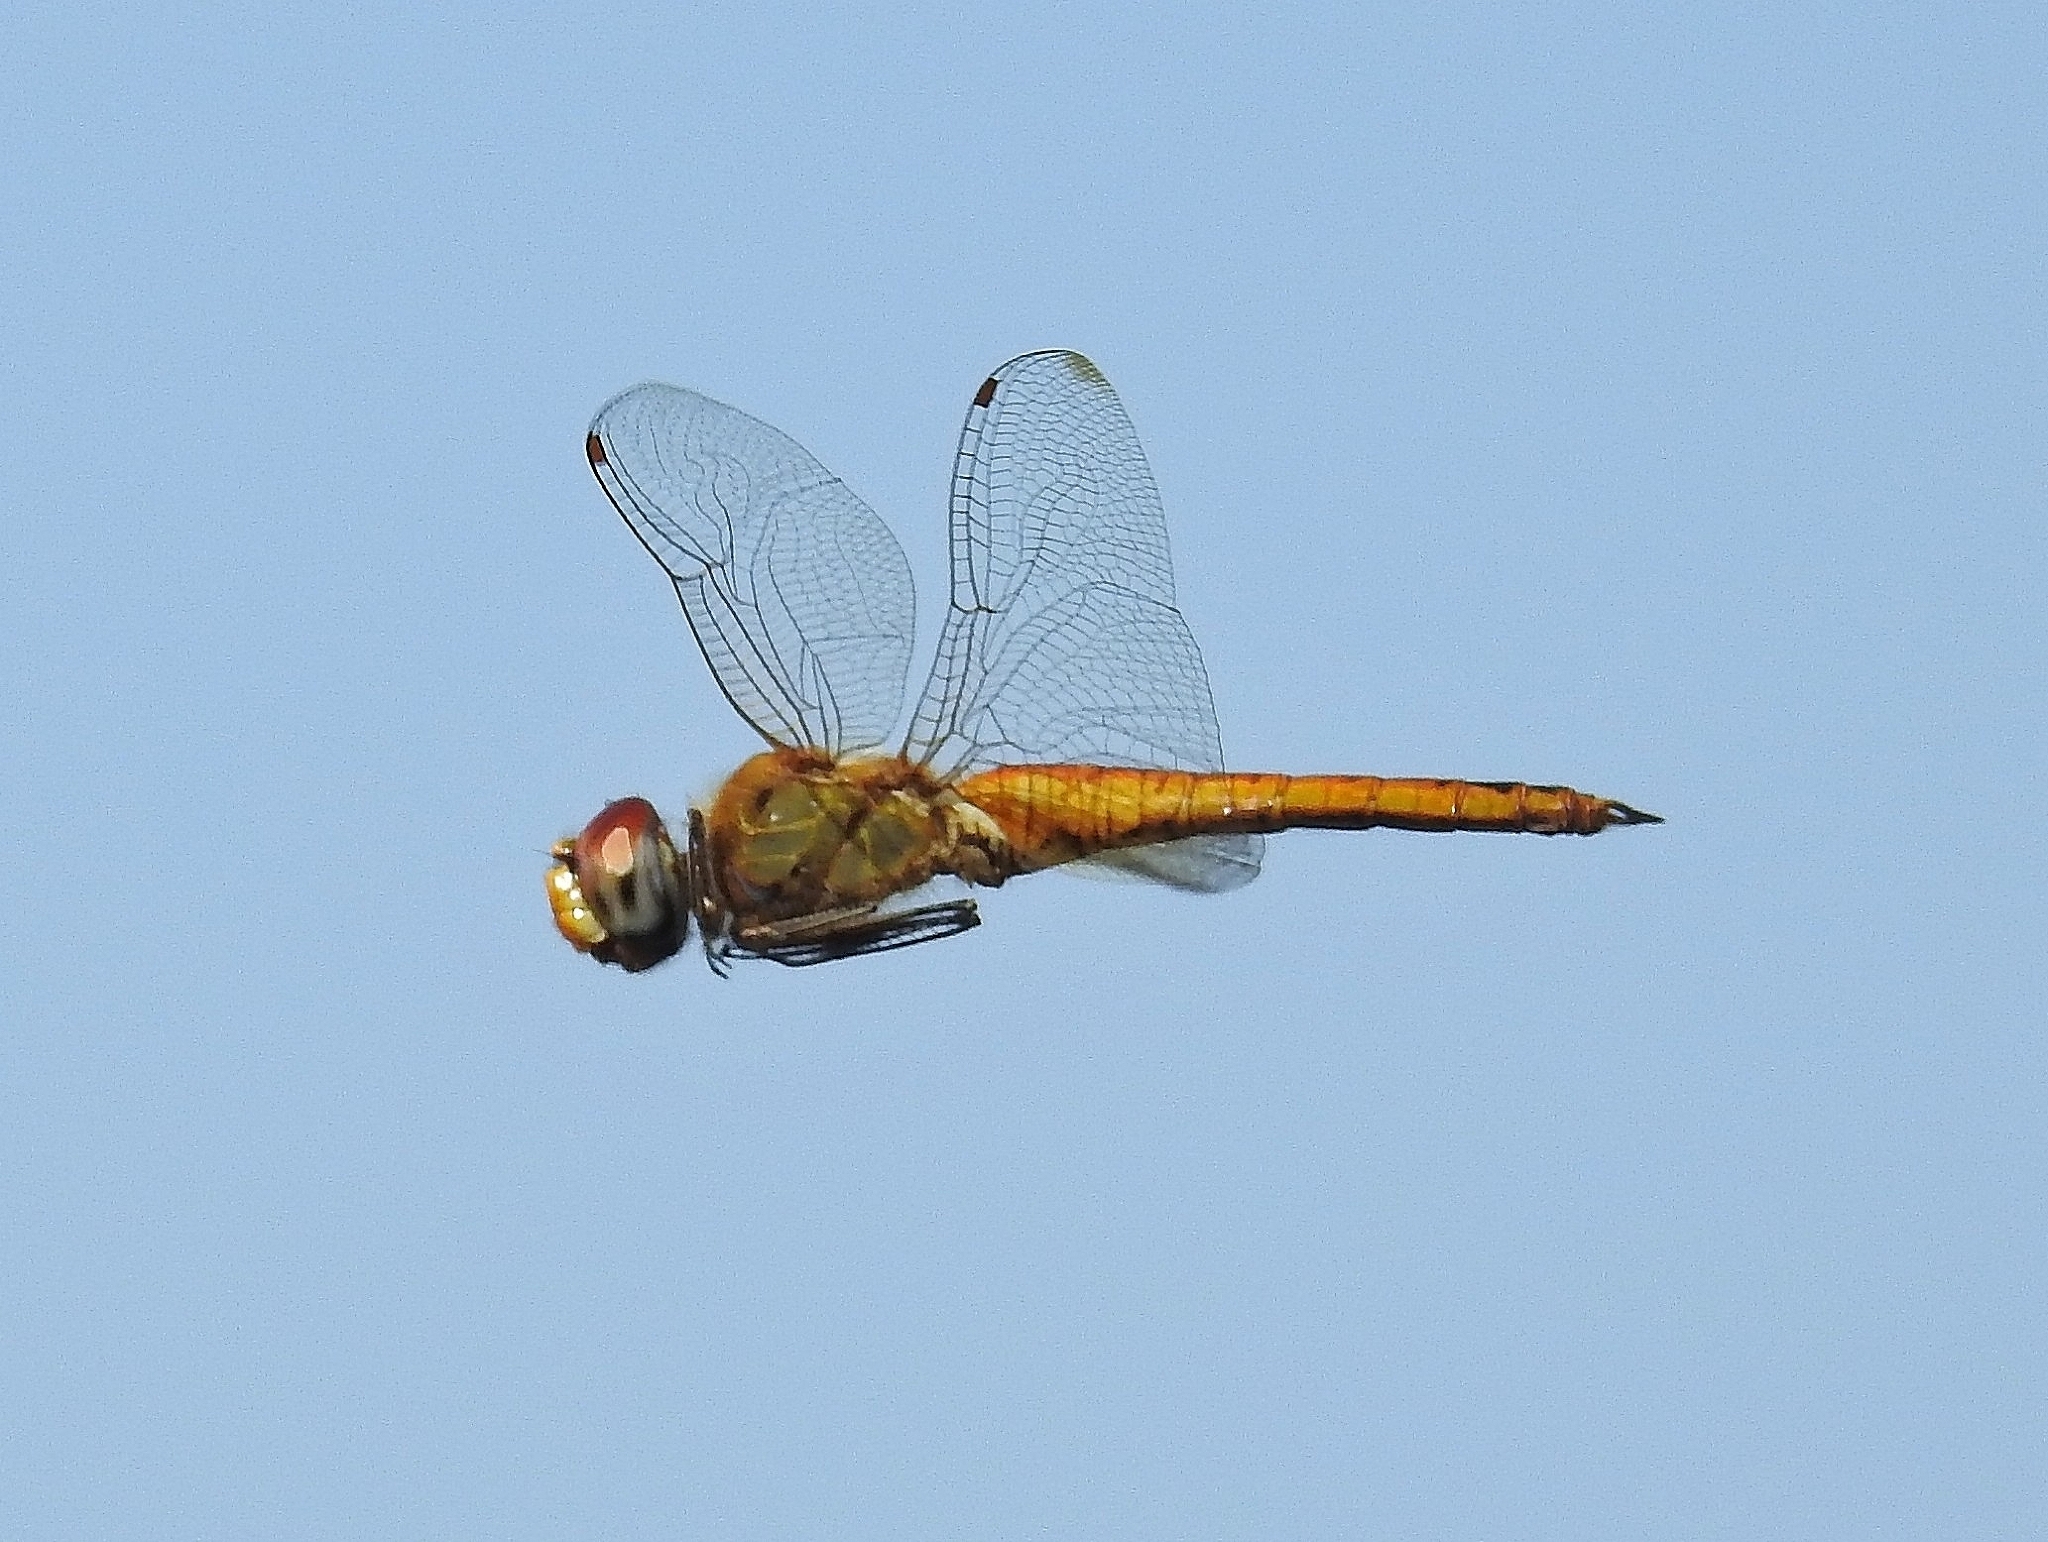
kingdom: Animalia
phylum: Arthropoda
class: Insecta
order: Odonata
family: Libellulidae
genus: Pantala
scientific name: Pantala flavescens
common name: Wandering glider
